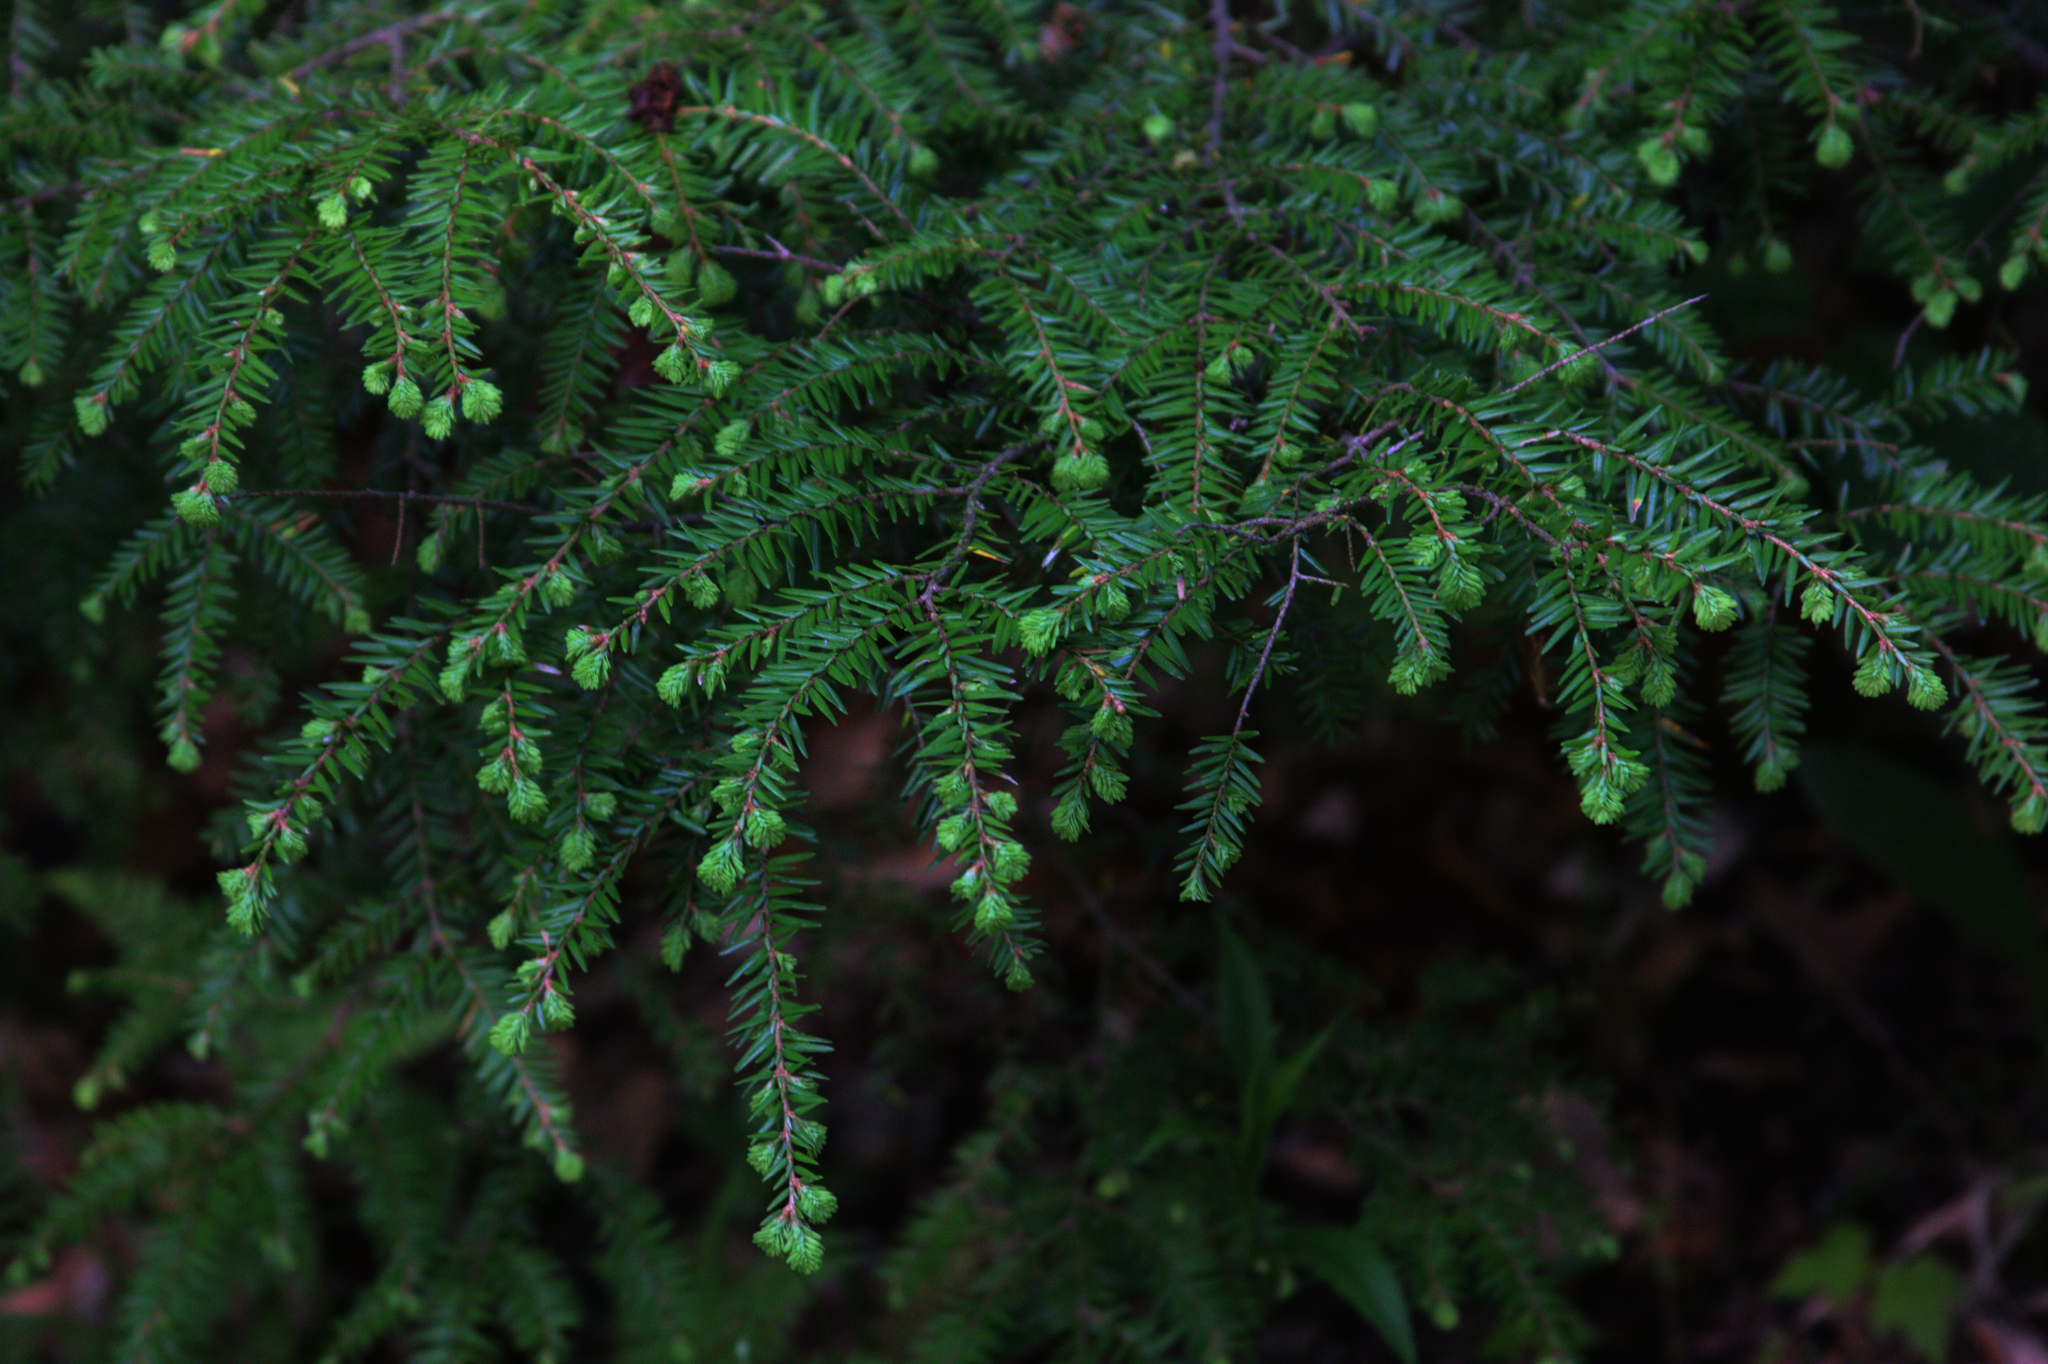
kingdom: Plantae
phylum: Tracheophyta
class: Pinopsida
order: Pinales
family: Pinaceae
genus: Tsuga
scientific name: Tsuga canadensis
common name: Eastern hemlock
